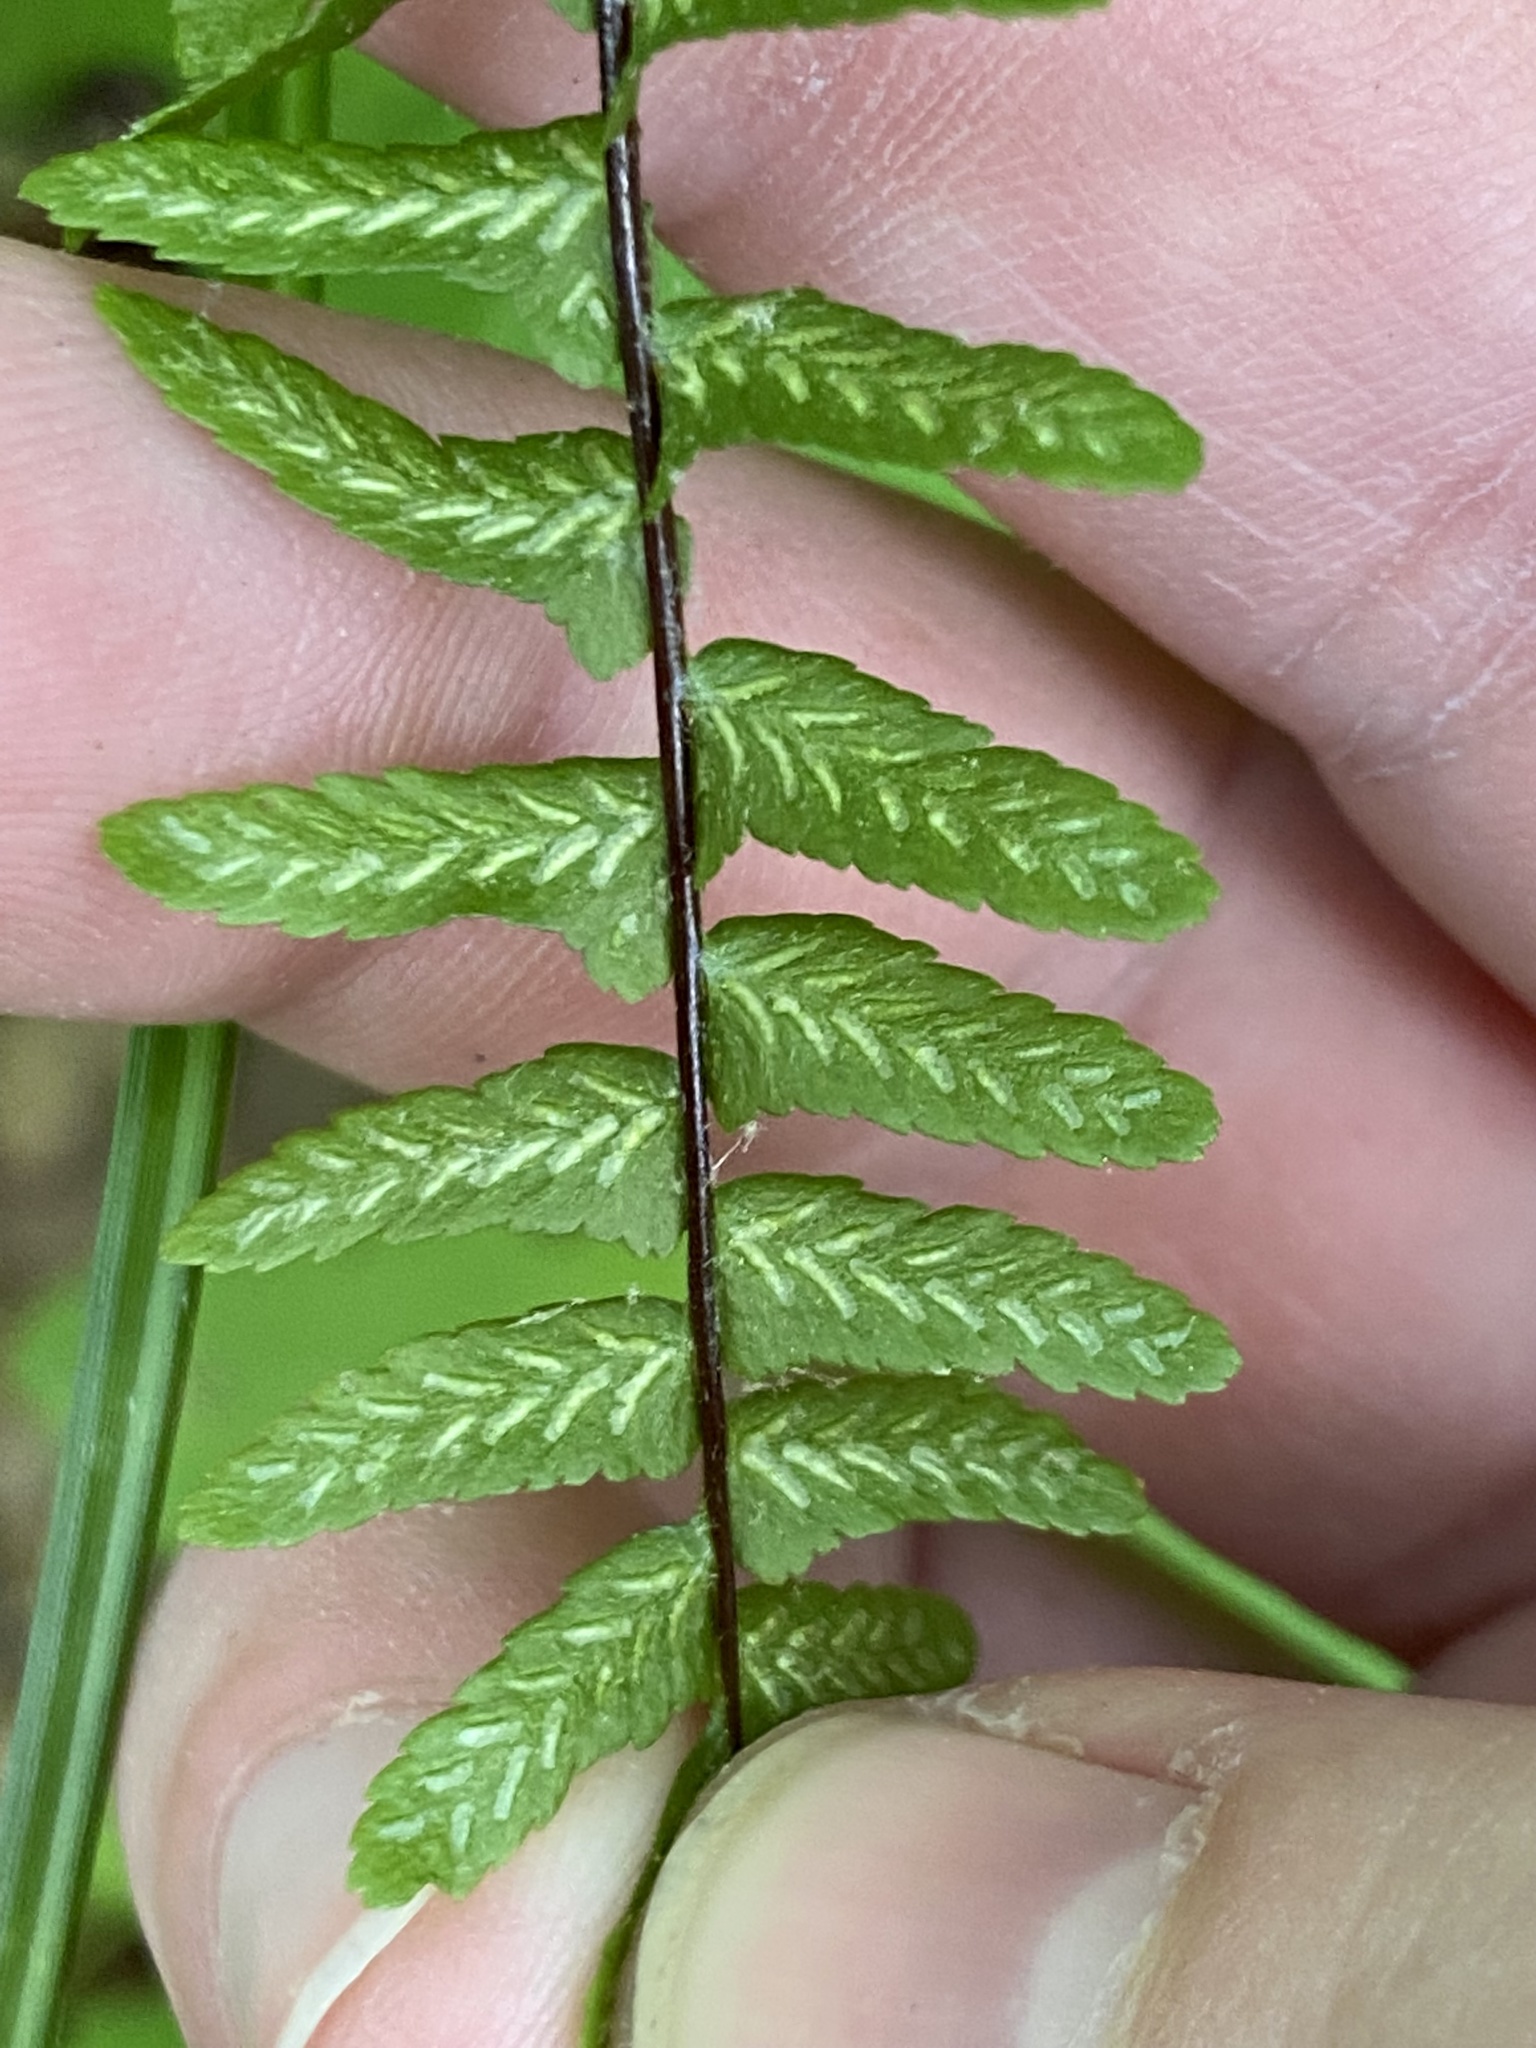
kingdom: Plantae
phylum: Tracheophyta
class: Polypodiopsida
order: Polypodiales
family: Aspleniaceae
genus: Asplenium
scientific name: Asplenium platyneuron
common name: Ebony spleenwort
